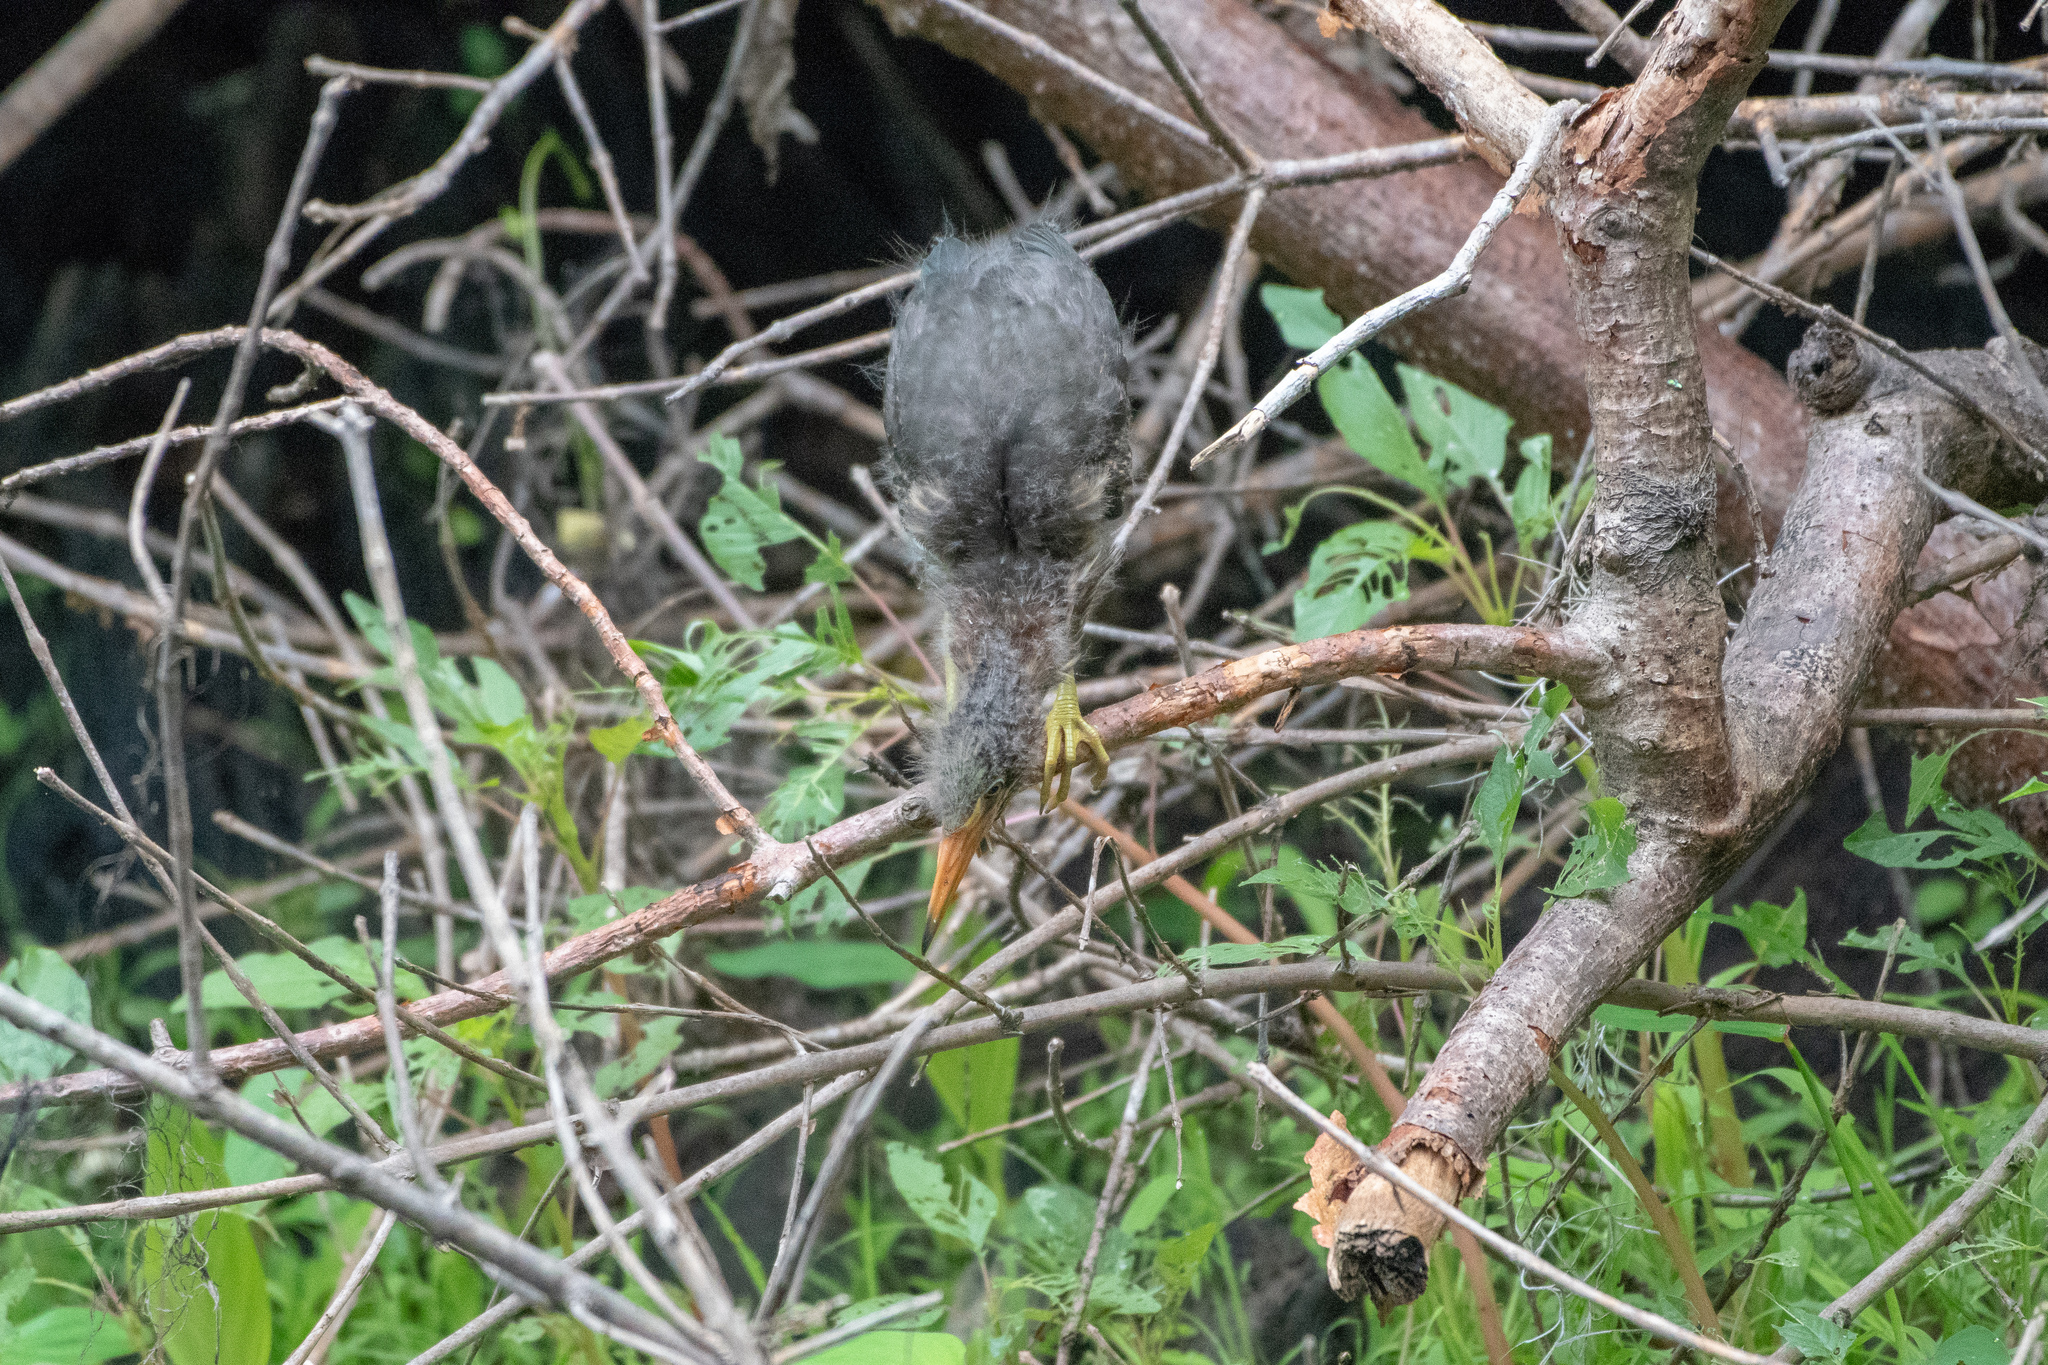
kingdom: Animalia
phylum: Chordata
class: Aves
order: Pelecaniformes
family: Ardeidae
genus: Butorides
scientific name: Butorides virescens
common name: Green heron
